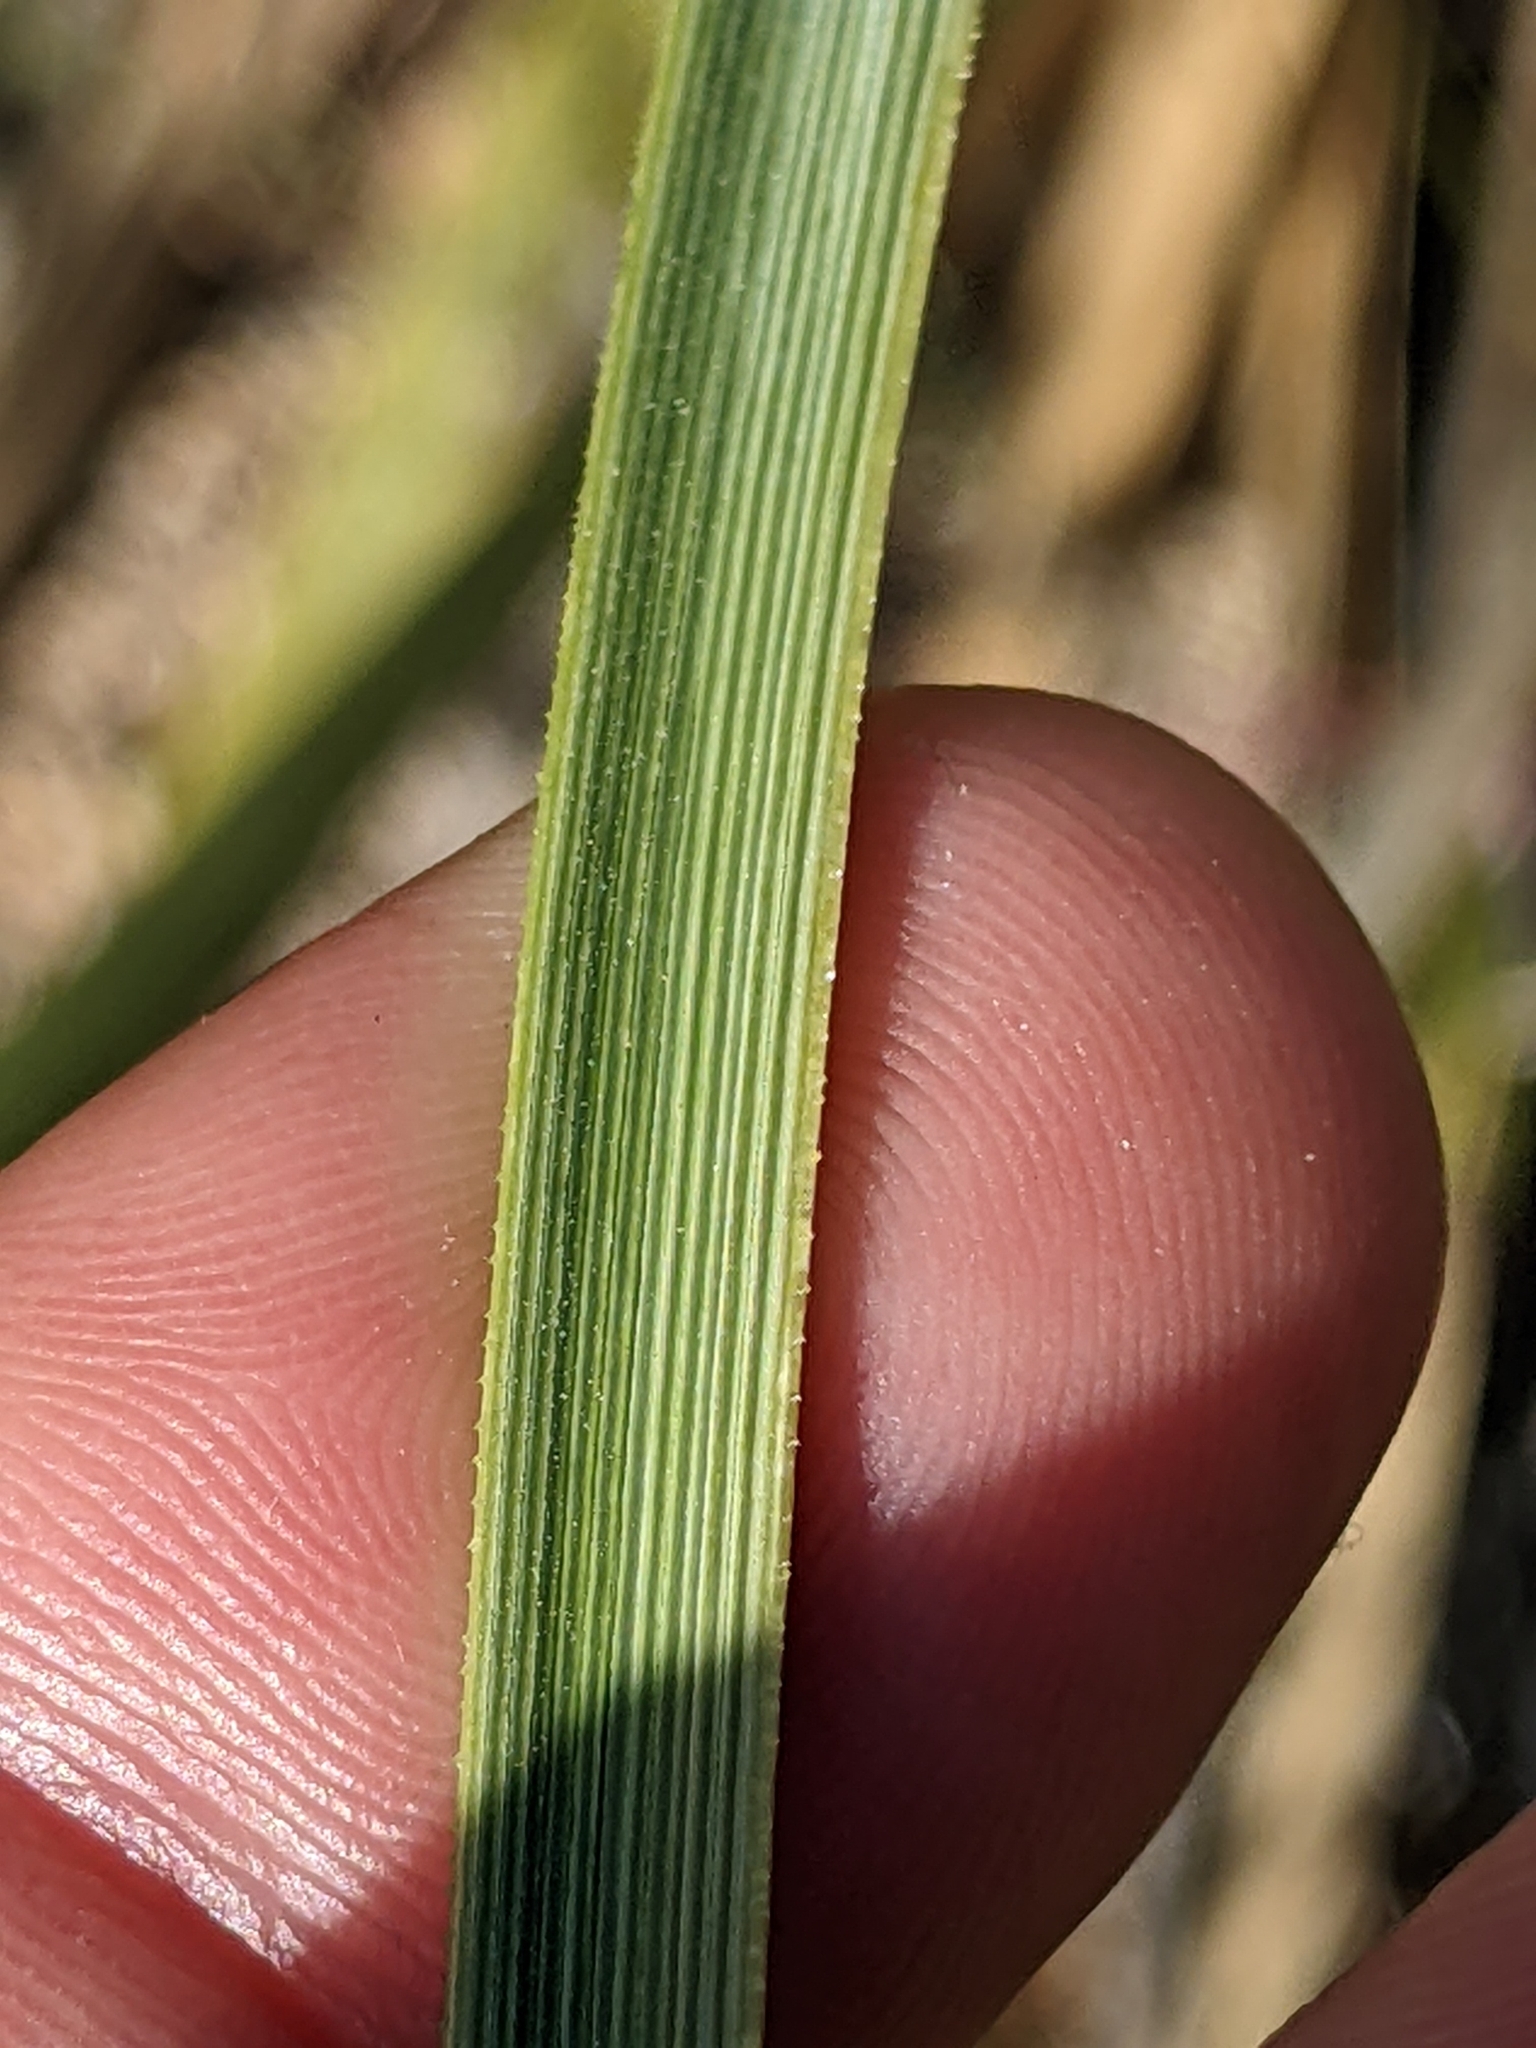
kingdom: Plantae
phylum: Tracheophyta
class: Liliopsida
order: Asparagales
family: Asparagaceae
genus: Nolina
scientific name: Nolina parryi
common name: Parry nolina
